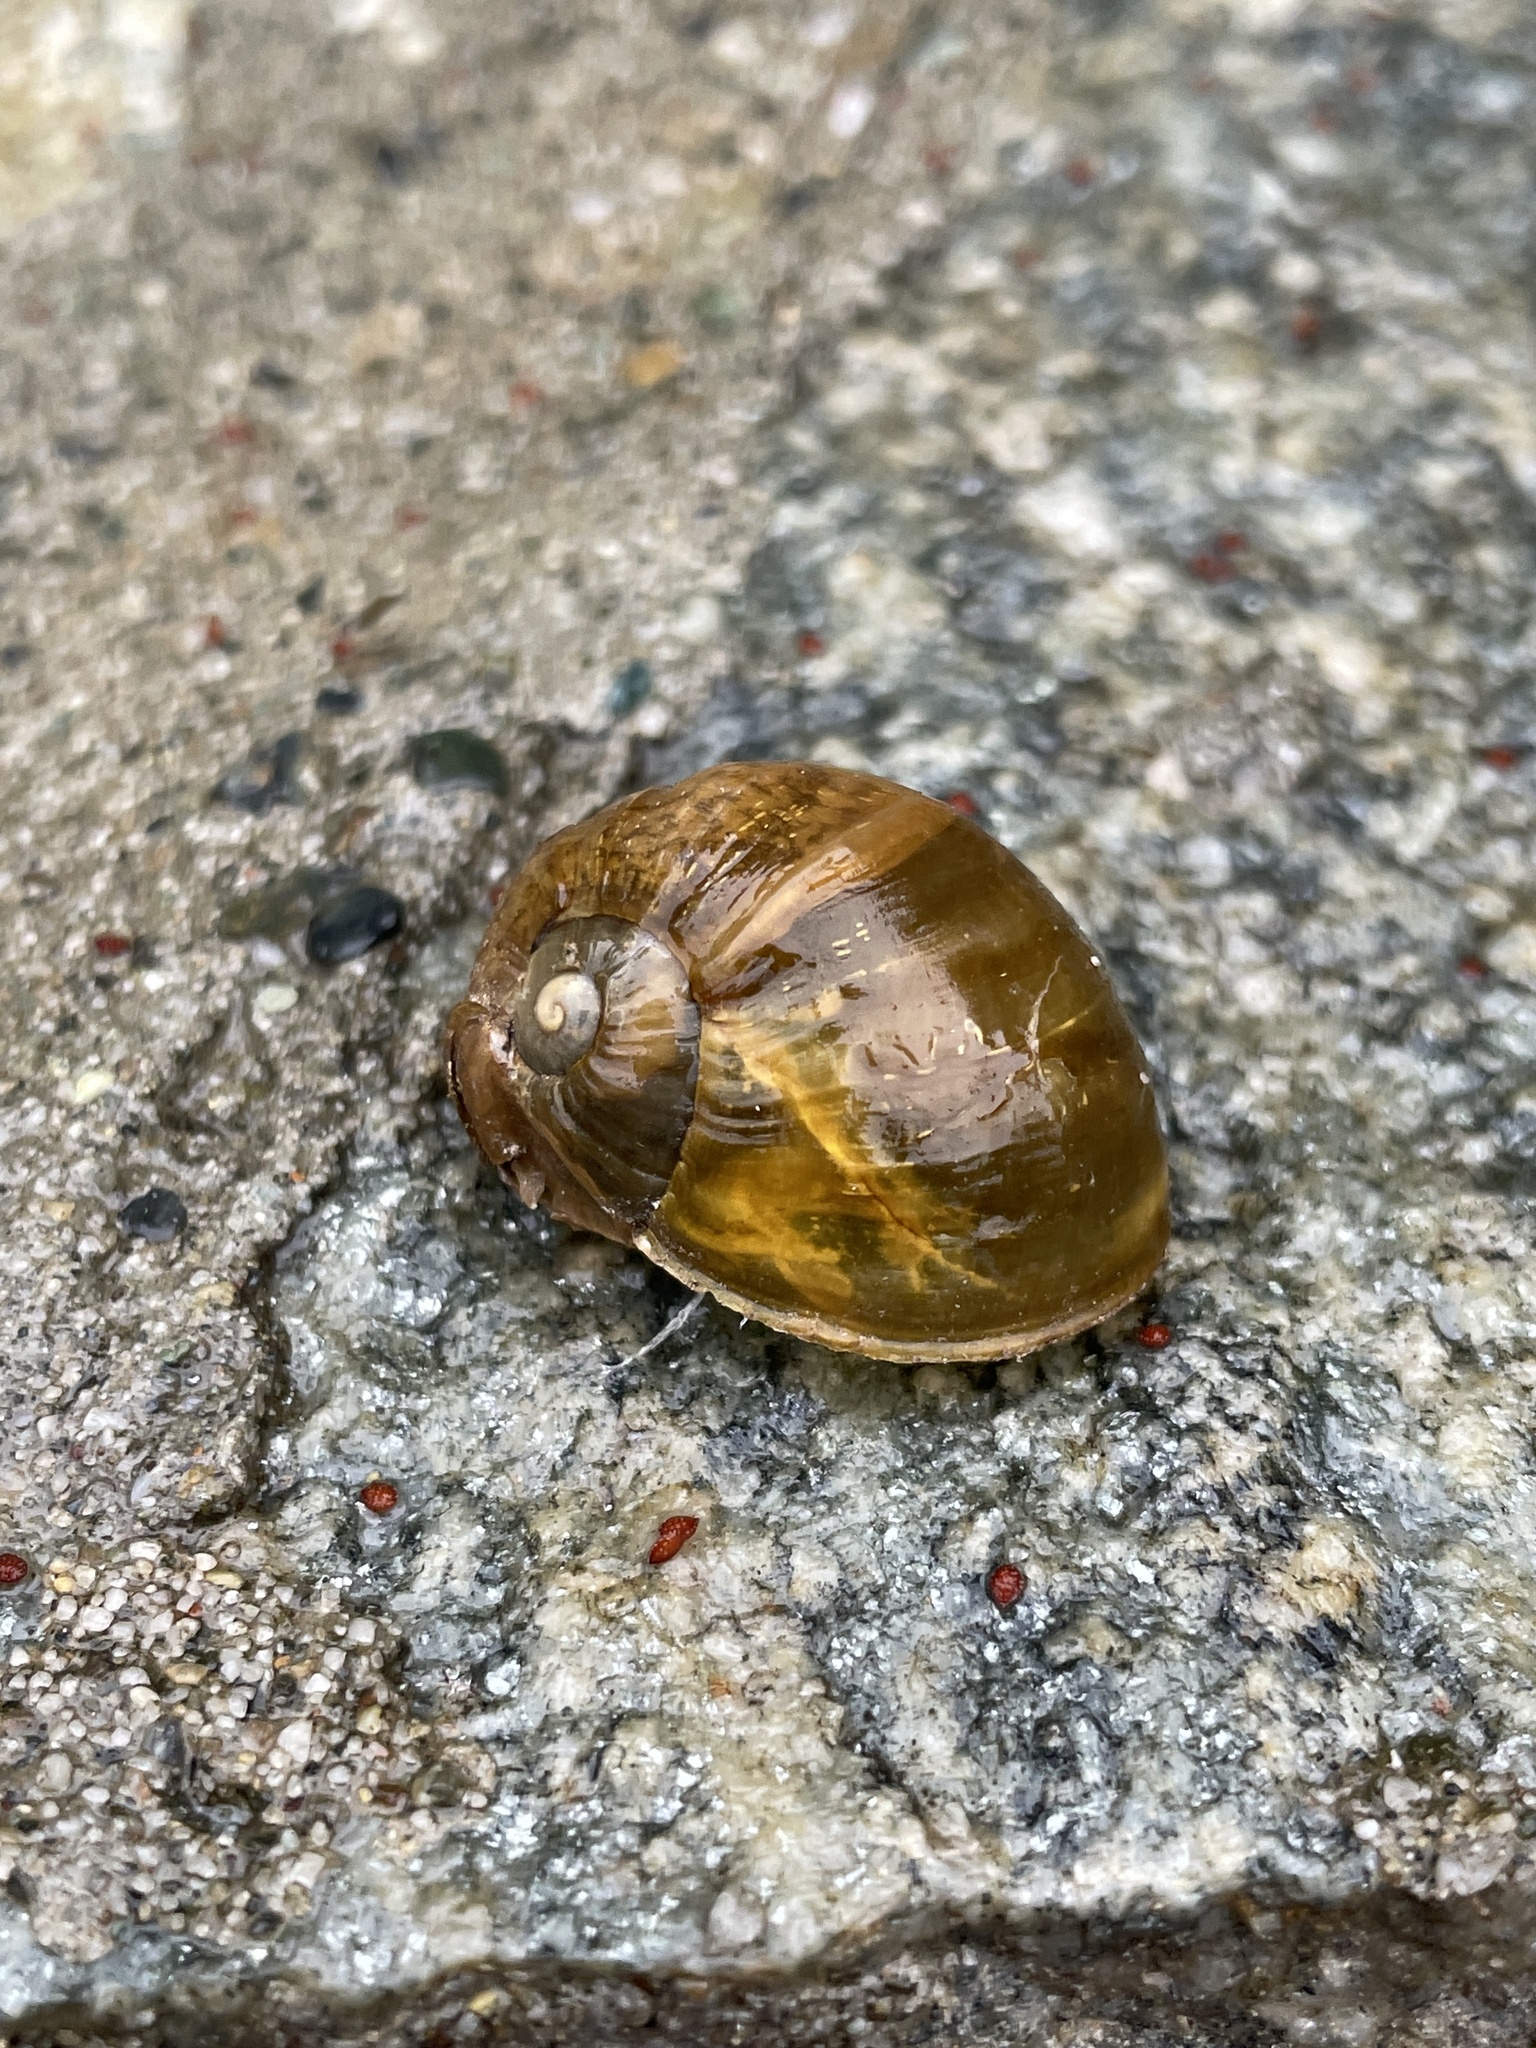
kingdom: Animalia
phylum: Mollusca
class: Gastropoda
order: Stylommatophora
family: Helicidae
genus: Cantareus
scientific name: Cantareus apertus
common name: Green gardensnail
